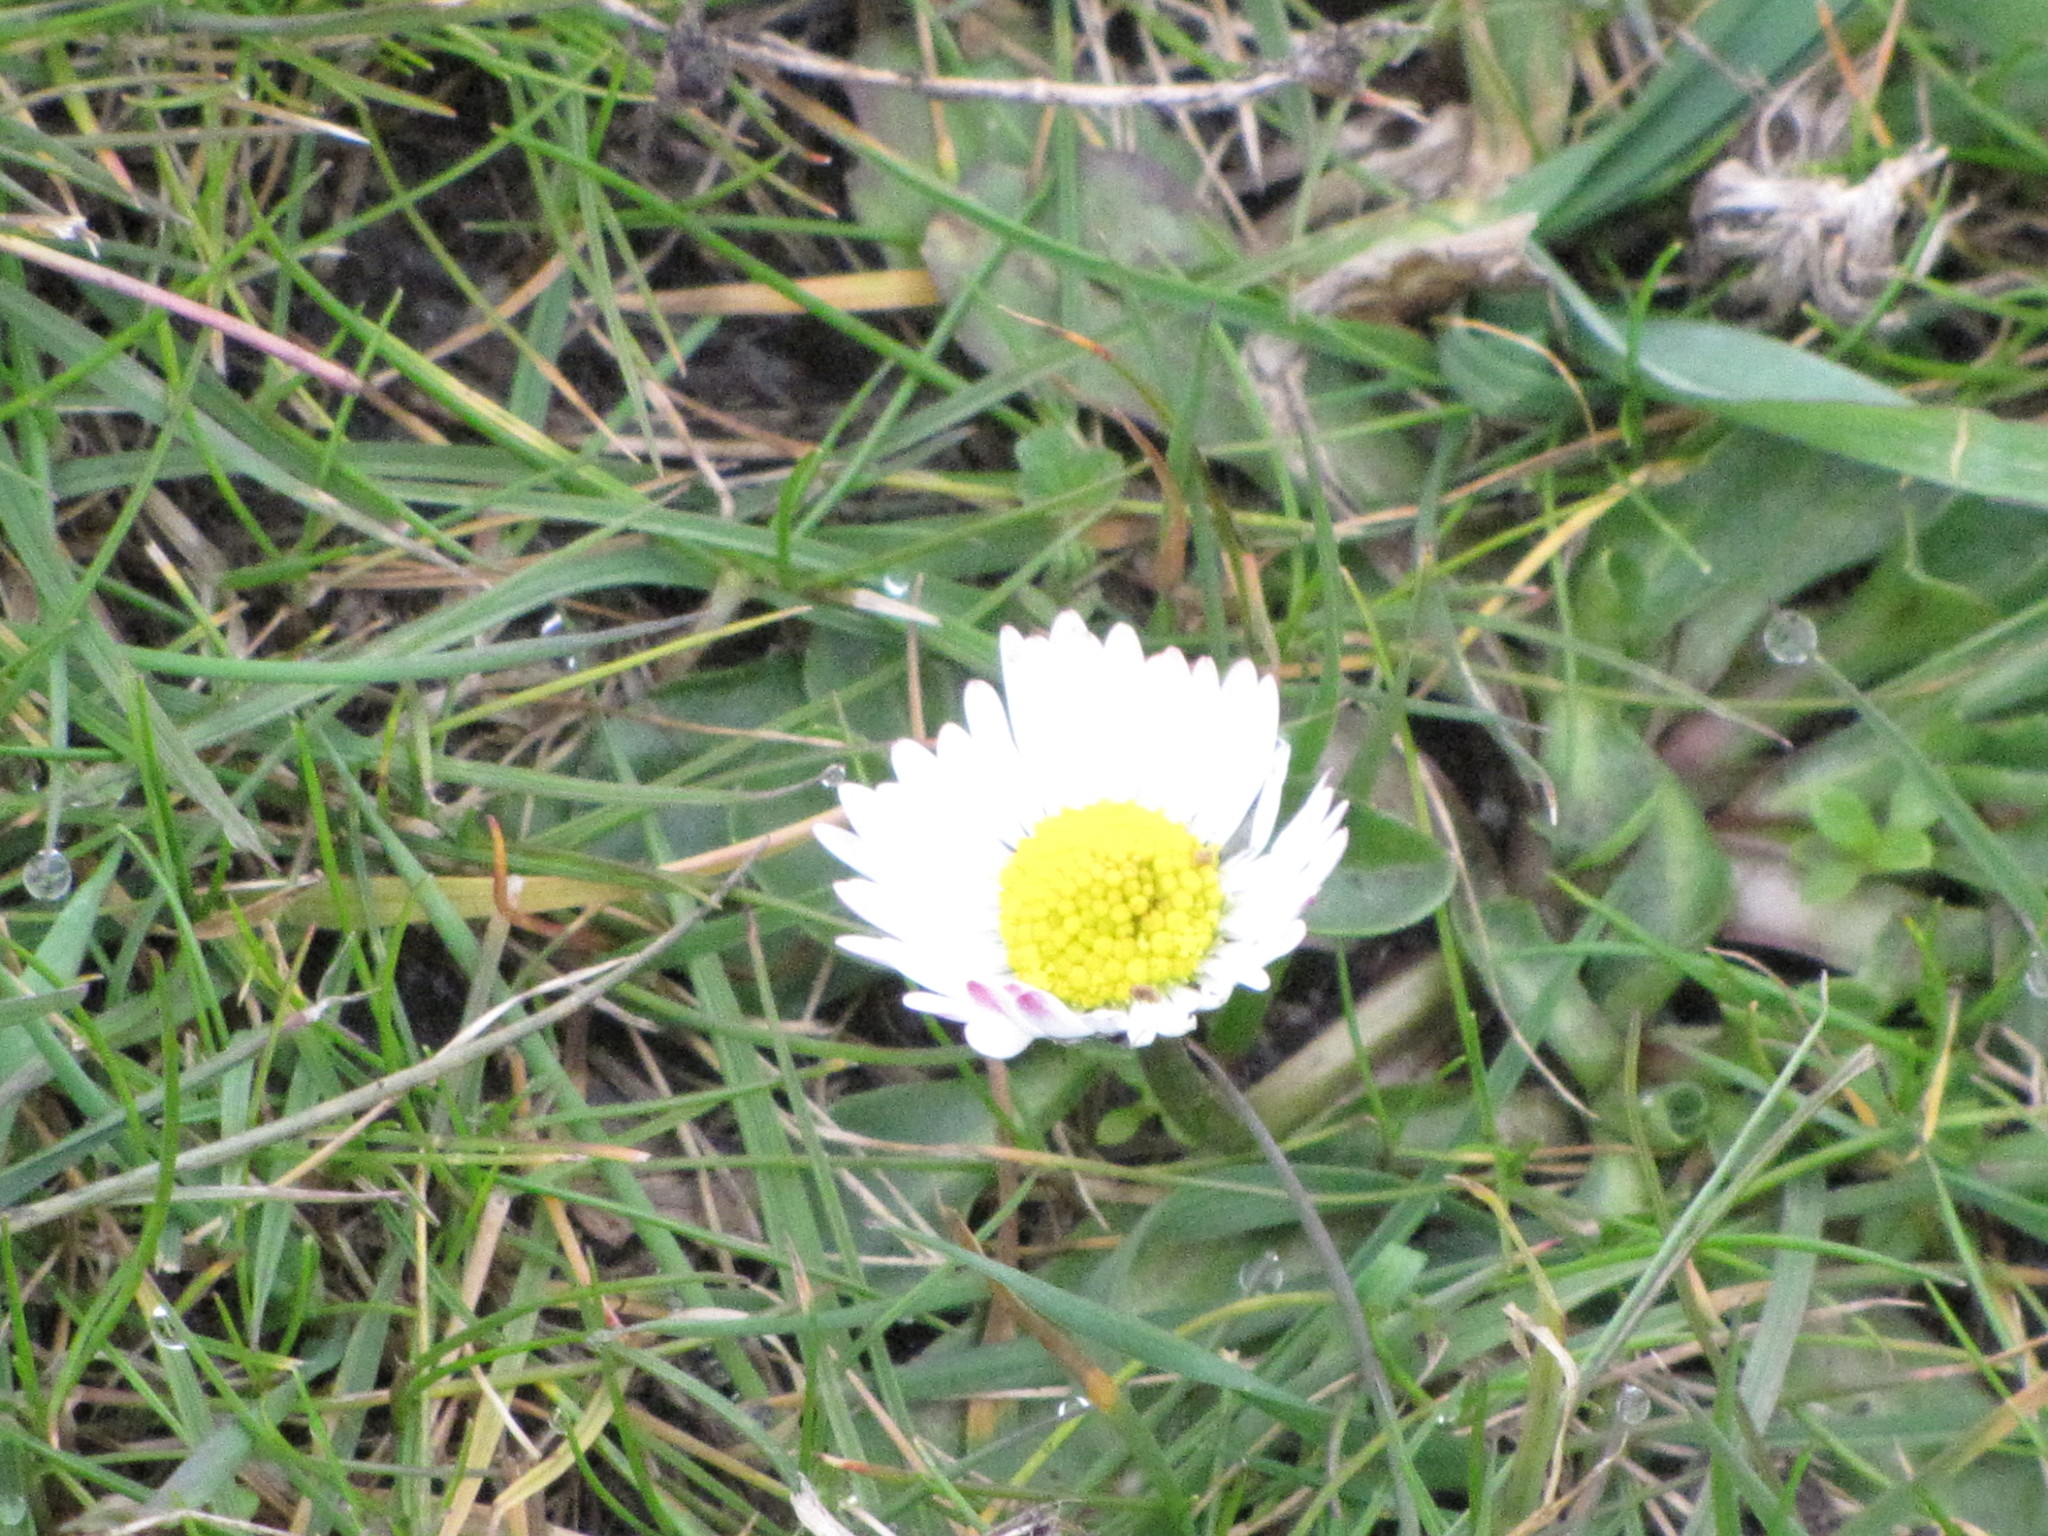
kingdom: Plantae
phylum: Tracheophyta
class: Magnoliopsida
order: Asterales
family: Asteraceae
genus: Bellis
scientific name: Bellis perennis
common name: Lawndaisy
